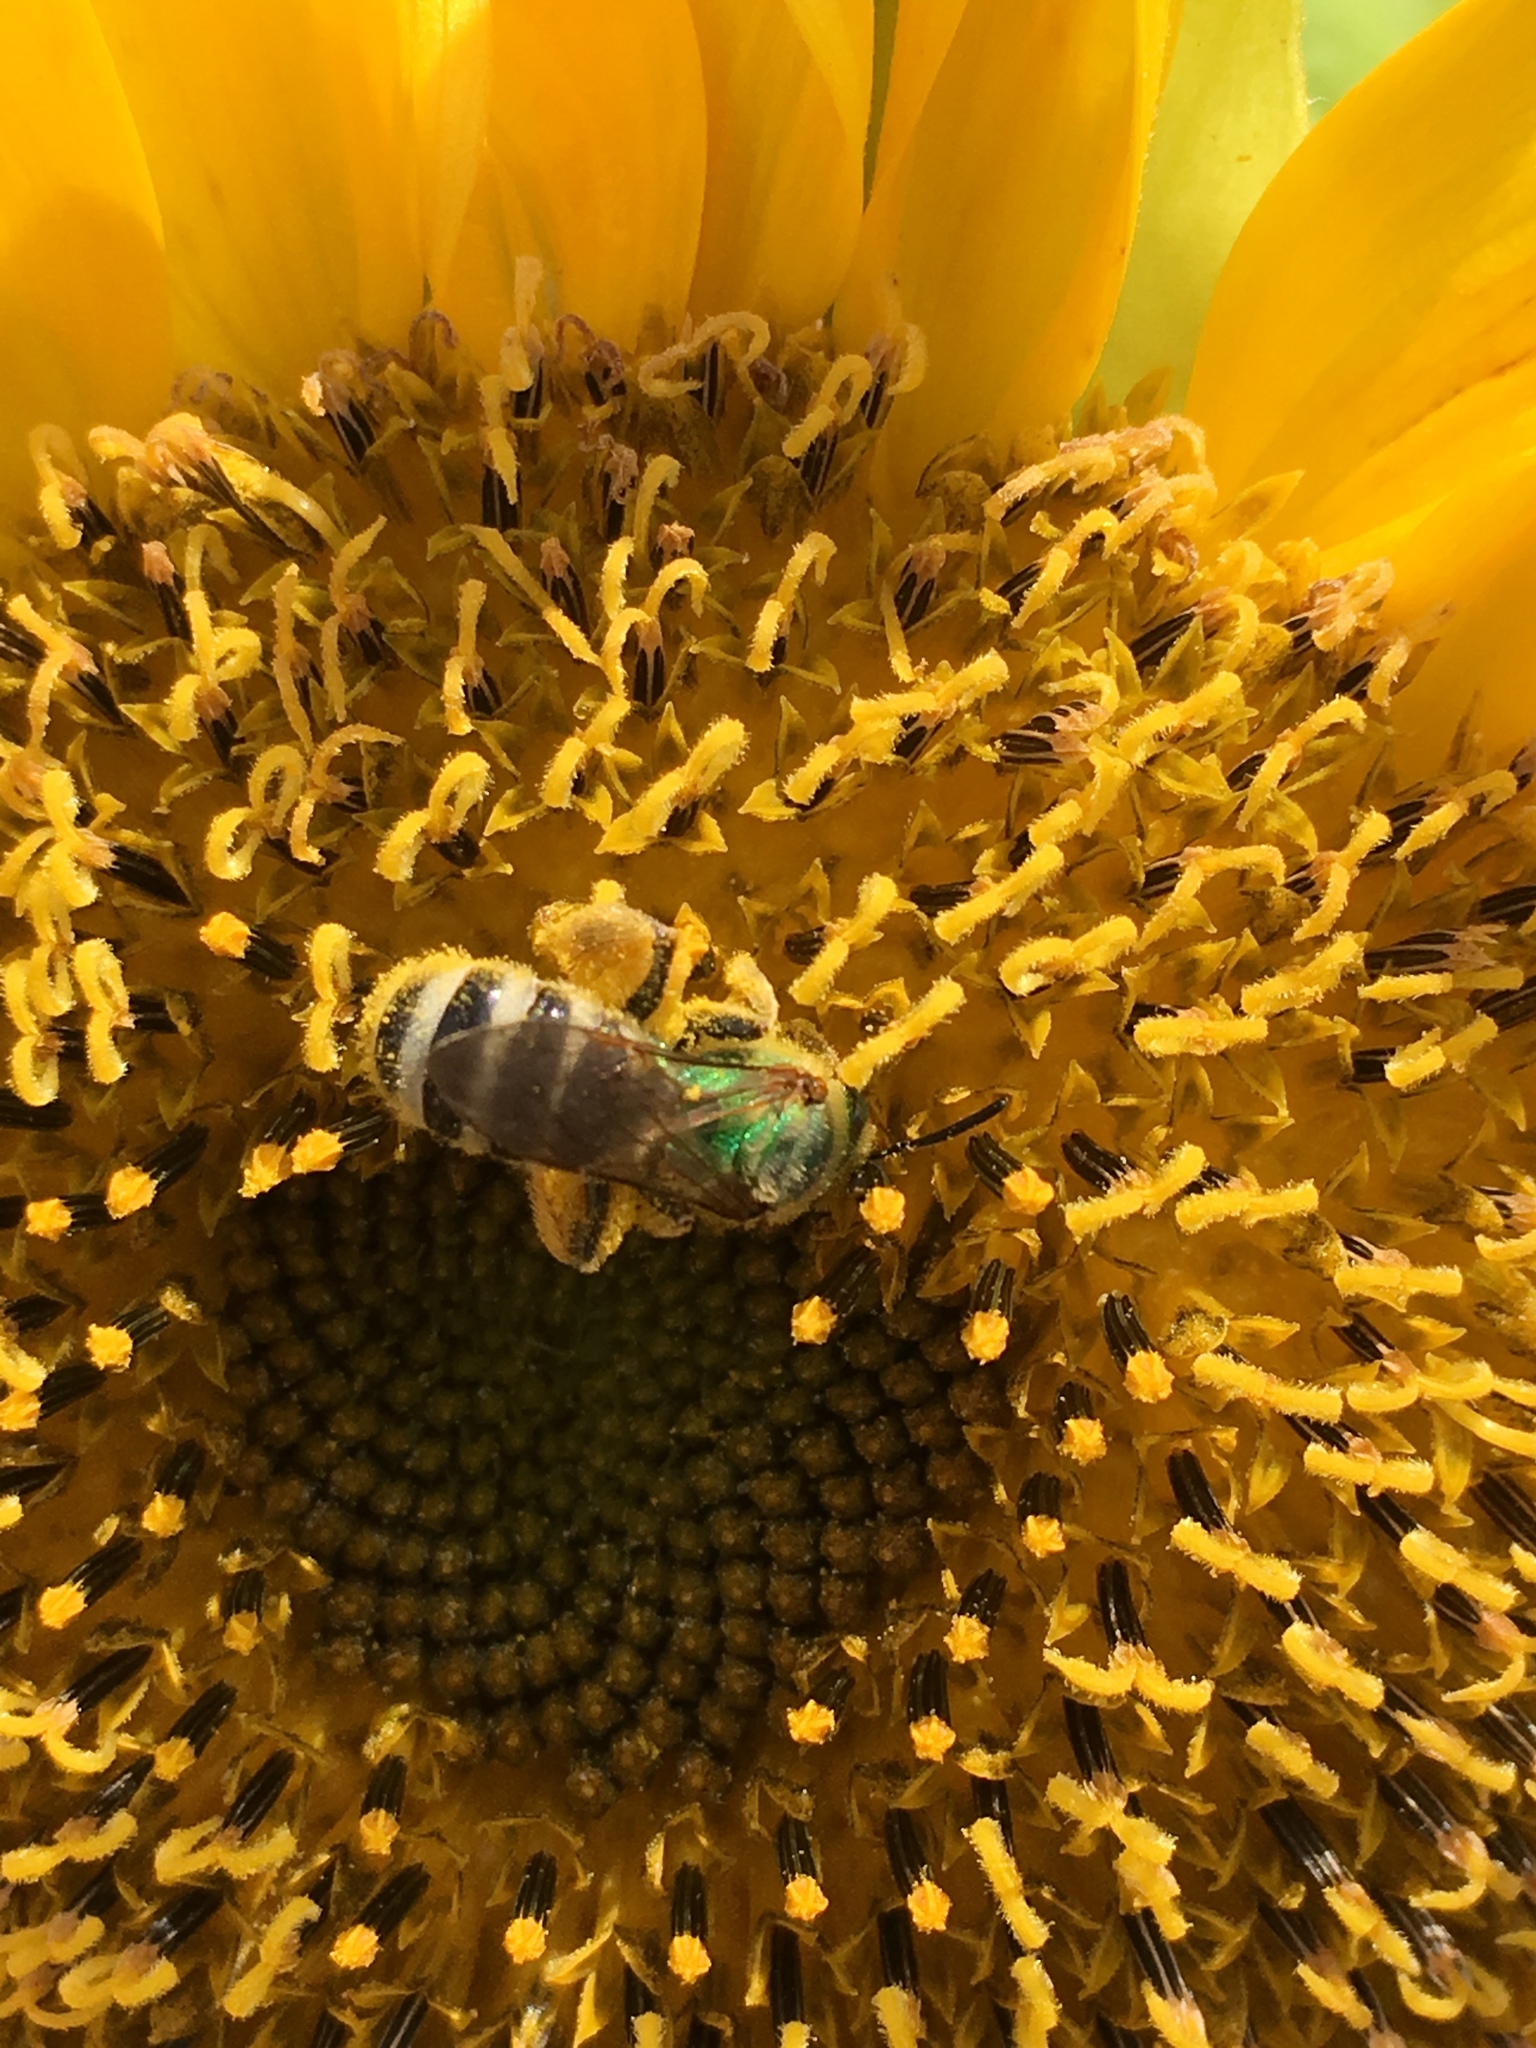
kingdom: Animalia
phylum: Arthropoda
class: Insecta
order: Hymenoptera
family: Halictidae
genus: Agapostemon
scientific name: Agapostemon virescens
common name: Bicolored striped sweat bee
